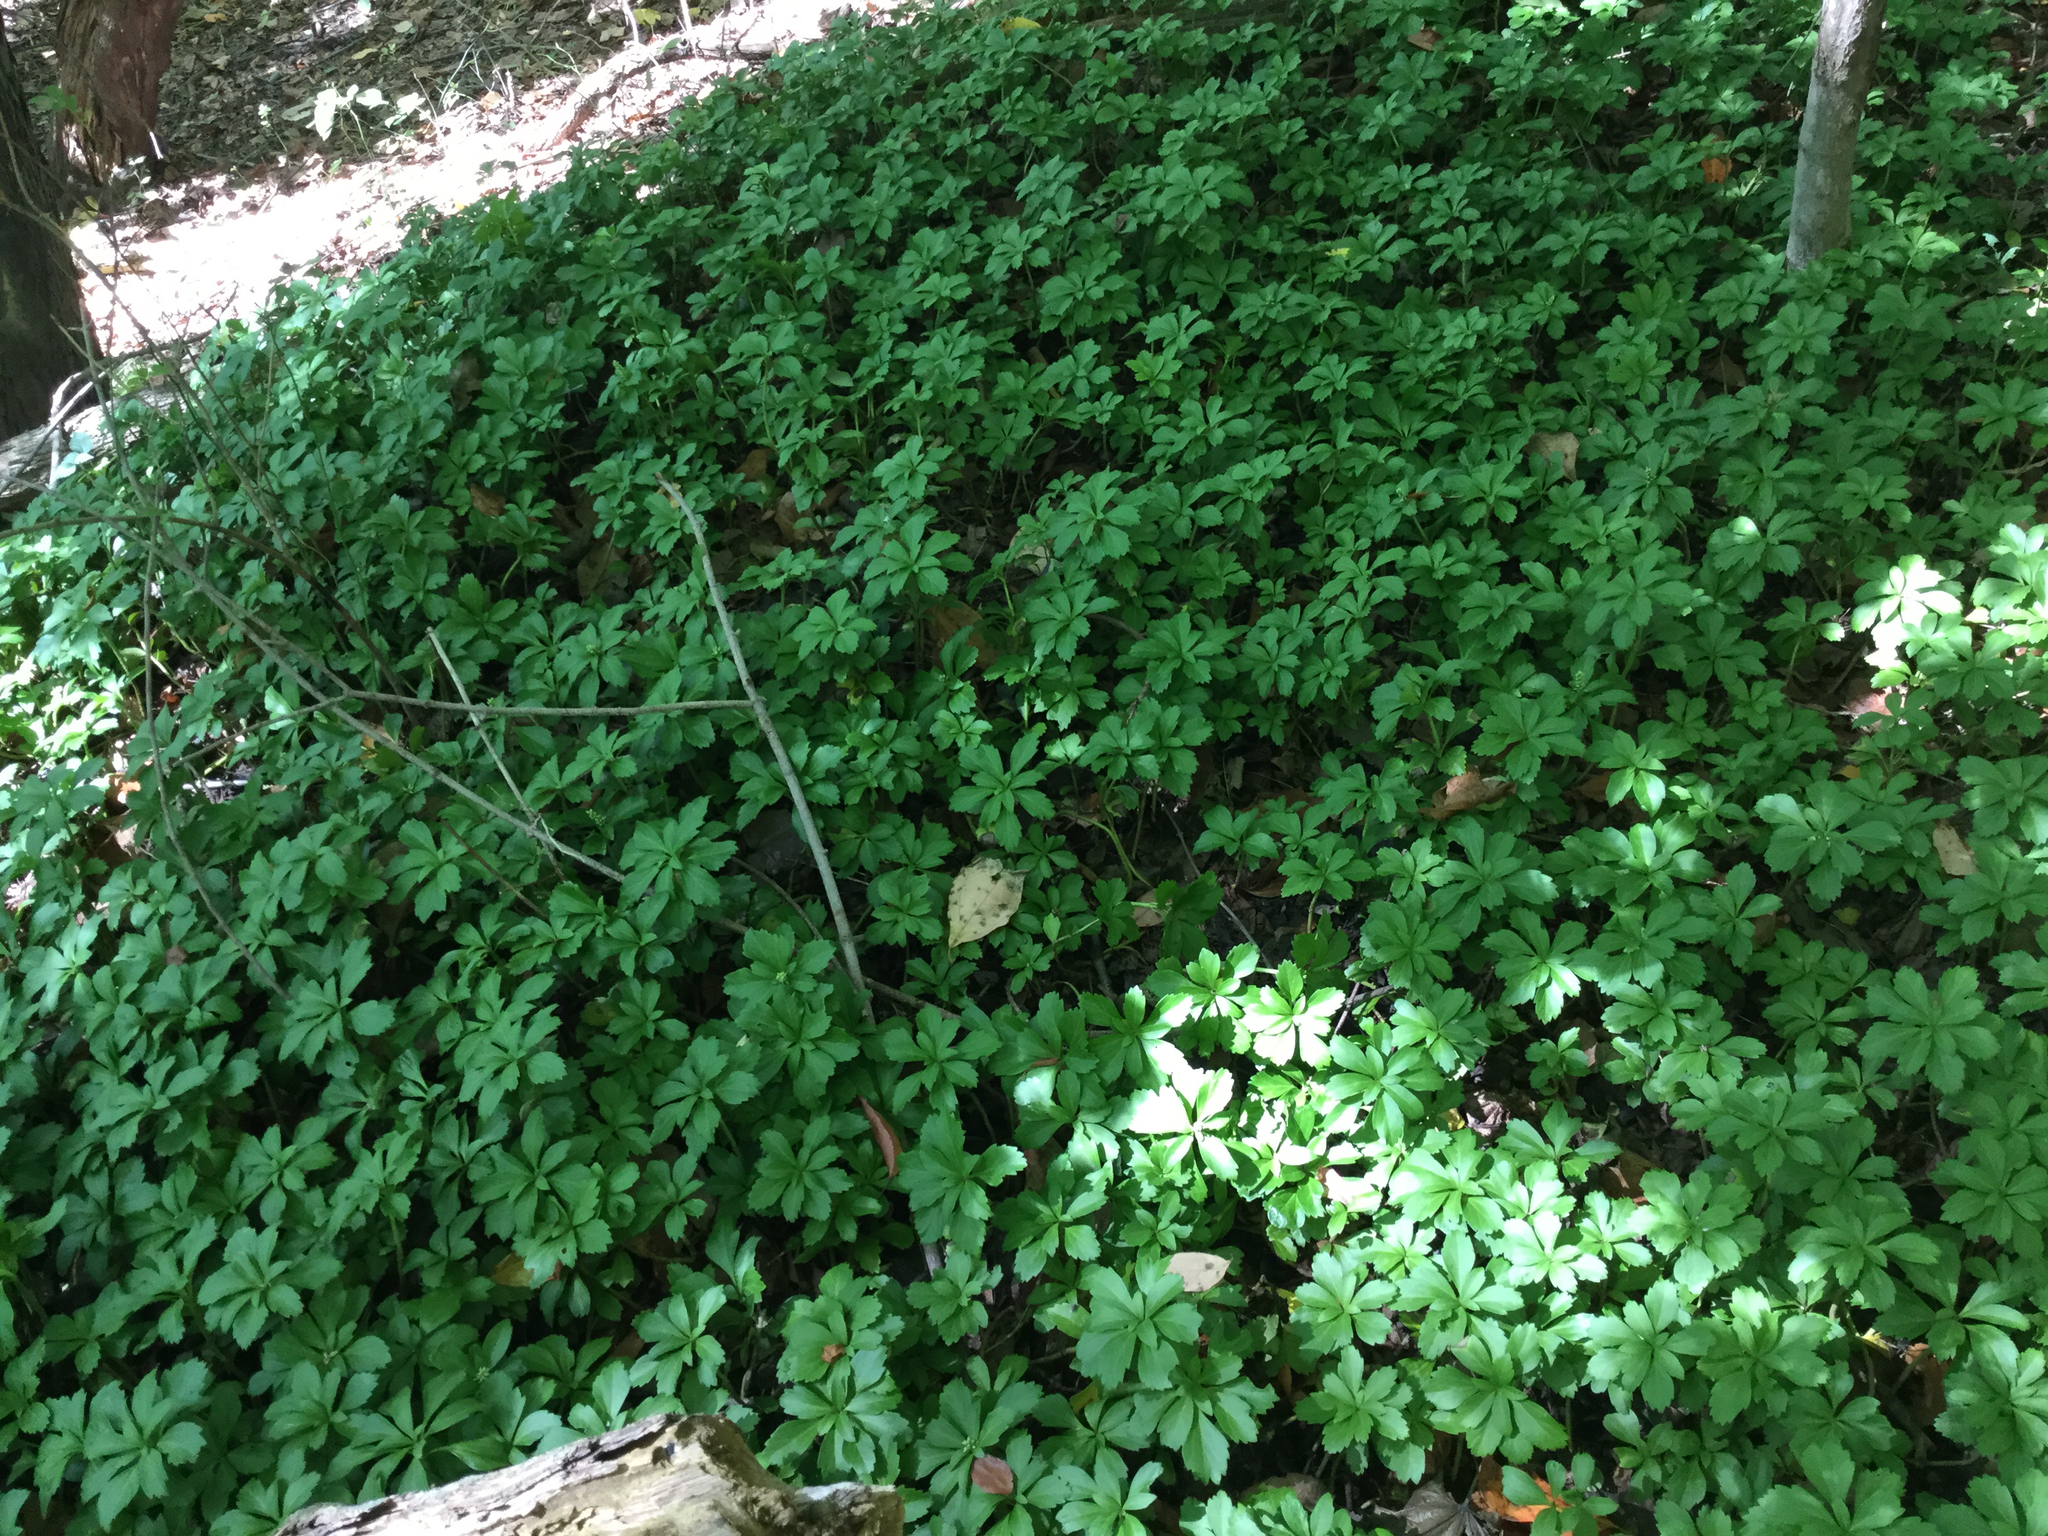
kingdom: Plantae
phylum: Tracheophyta
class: Magnoliopsida
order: Buxales
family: Buxaceae
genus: Pachysandra
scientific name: Pachysandra terminalis
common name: Japanese pachysandra
